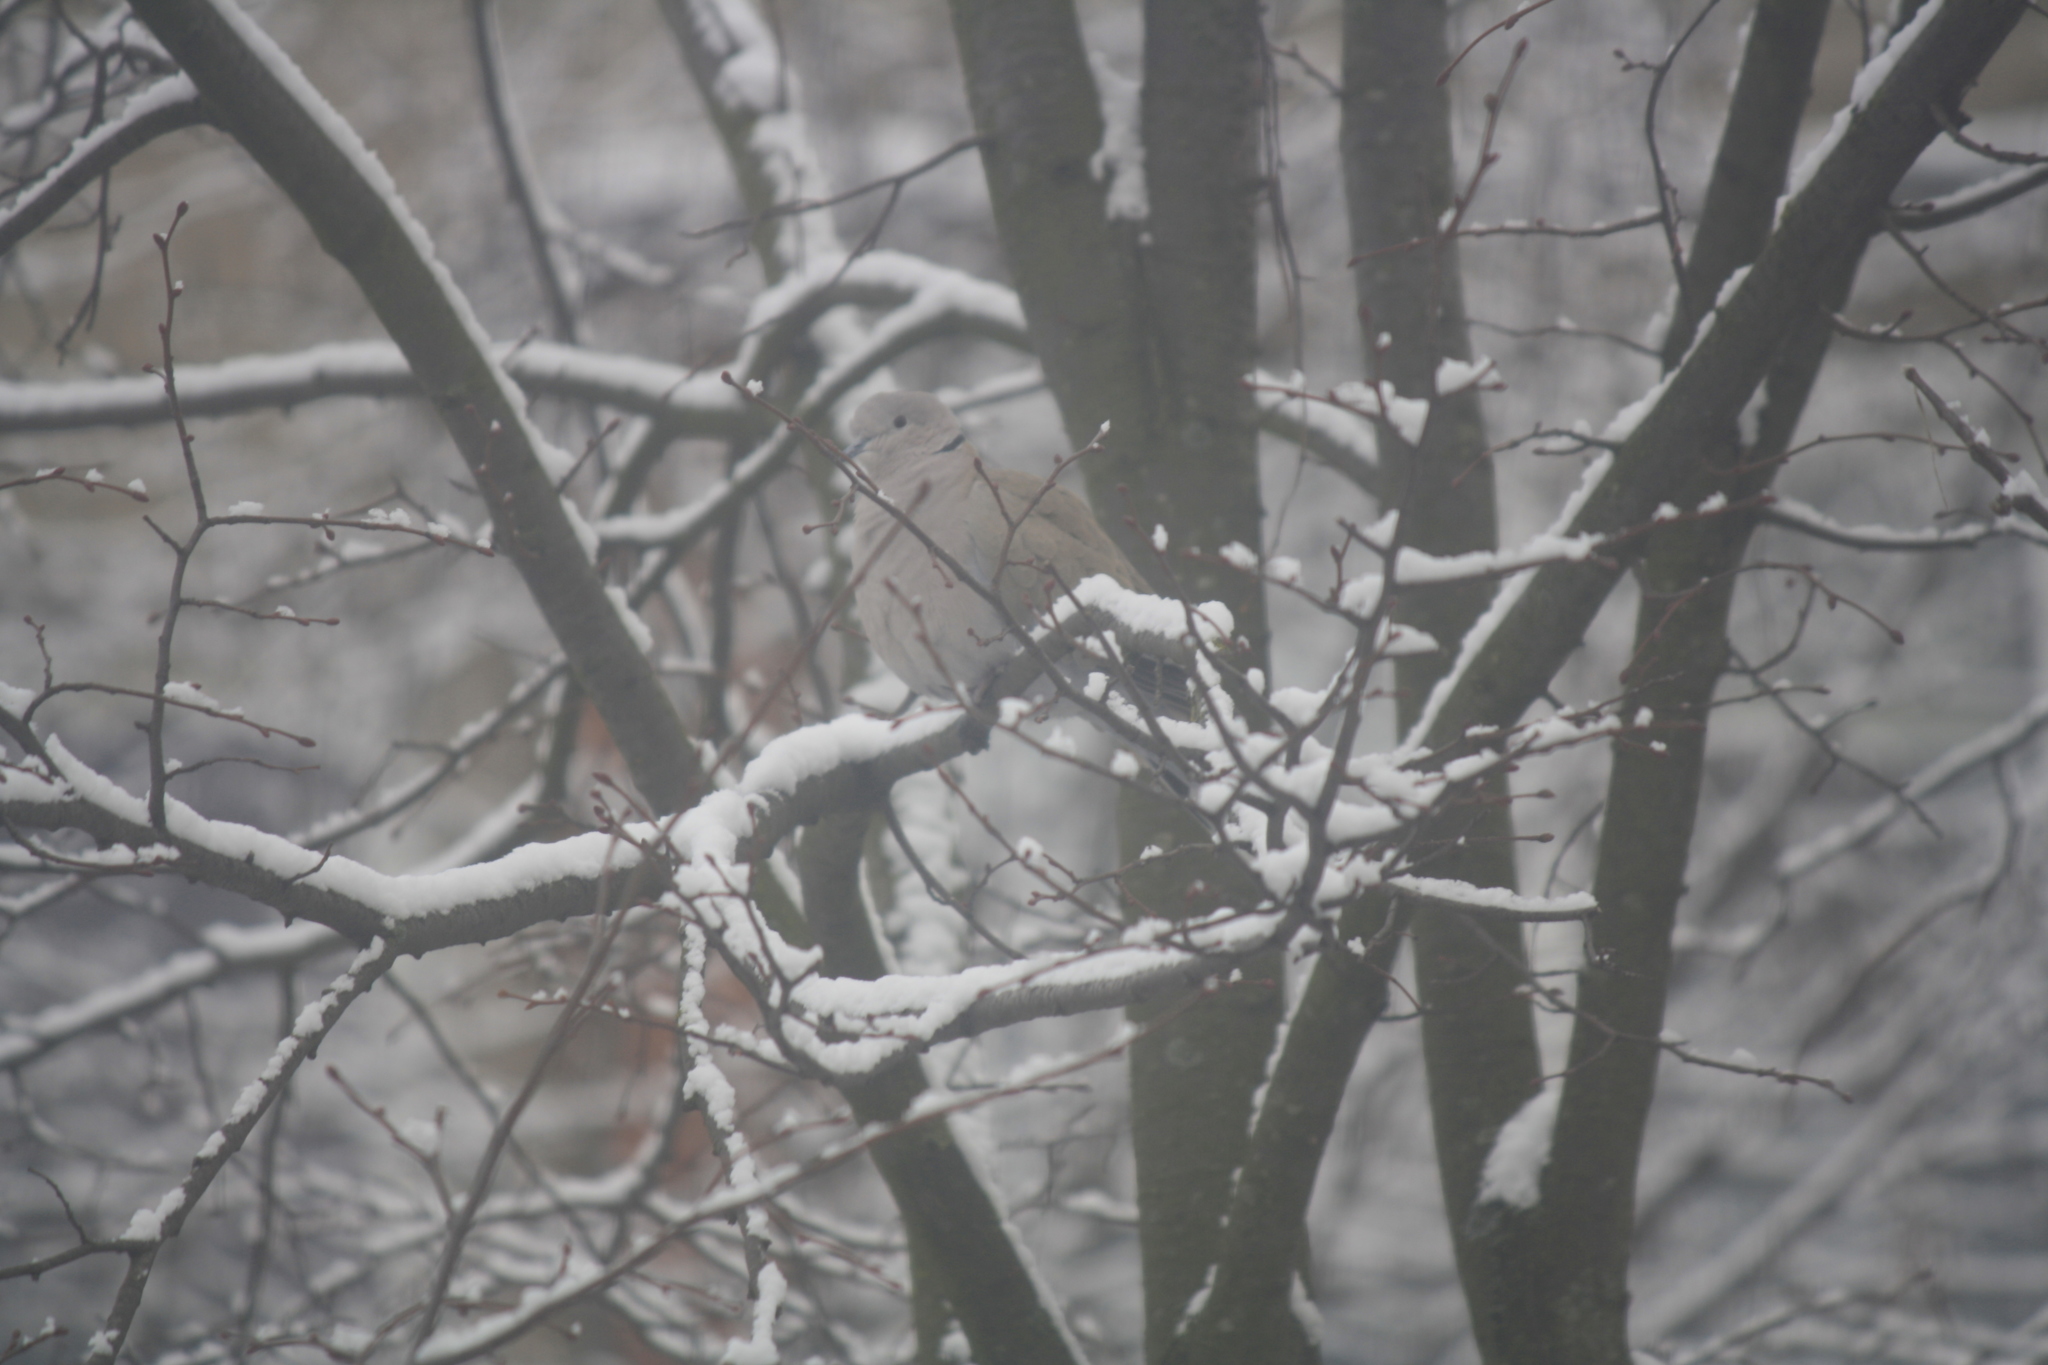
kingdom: Animalia
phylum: Chordata
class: Aves
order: Columbiformes
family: Columbidae
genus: Streptopelia
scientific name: Streptopelia decaocto
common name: Eurasian collared dove
